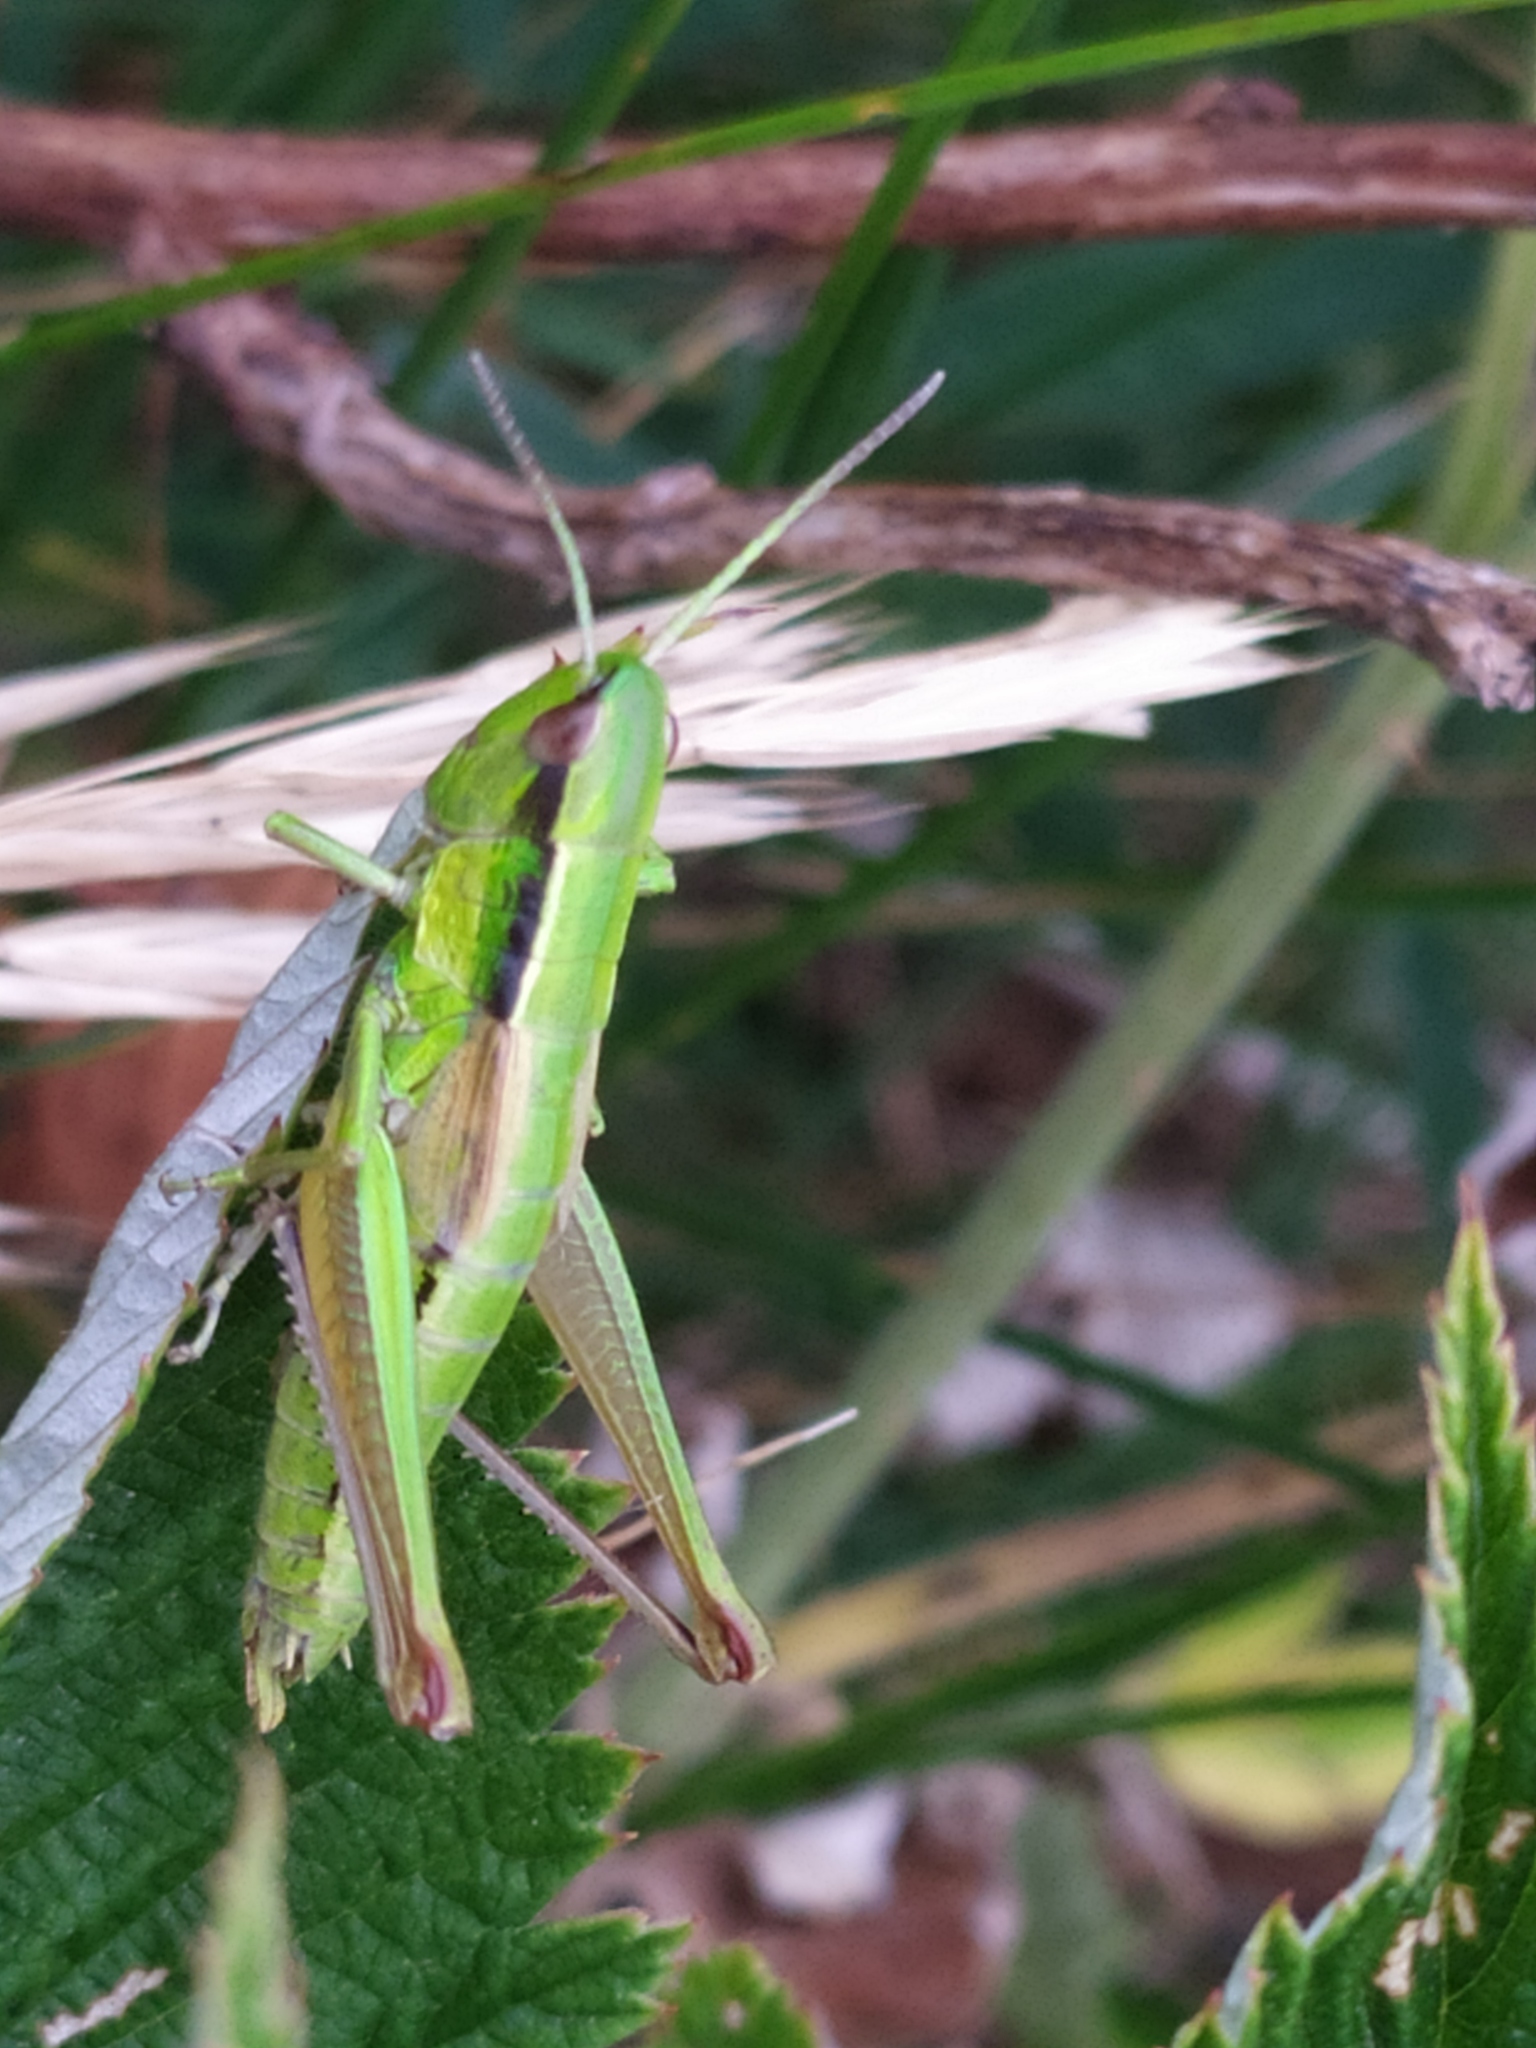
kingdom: Animalia
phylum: Arthropoda
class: Insecta
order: Orthoptera
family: Acrididae
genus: Euthystira
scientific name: Euthystira brachyptera
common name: Small gold grasshopper
